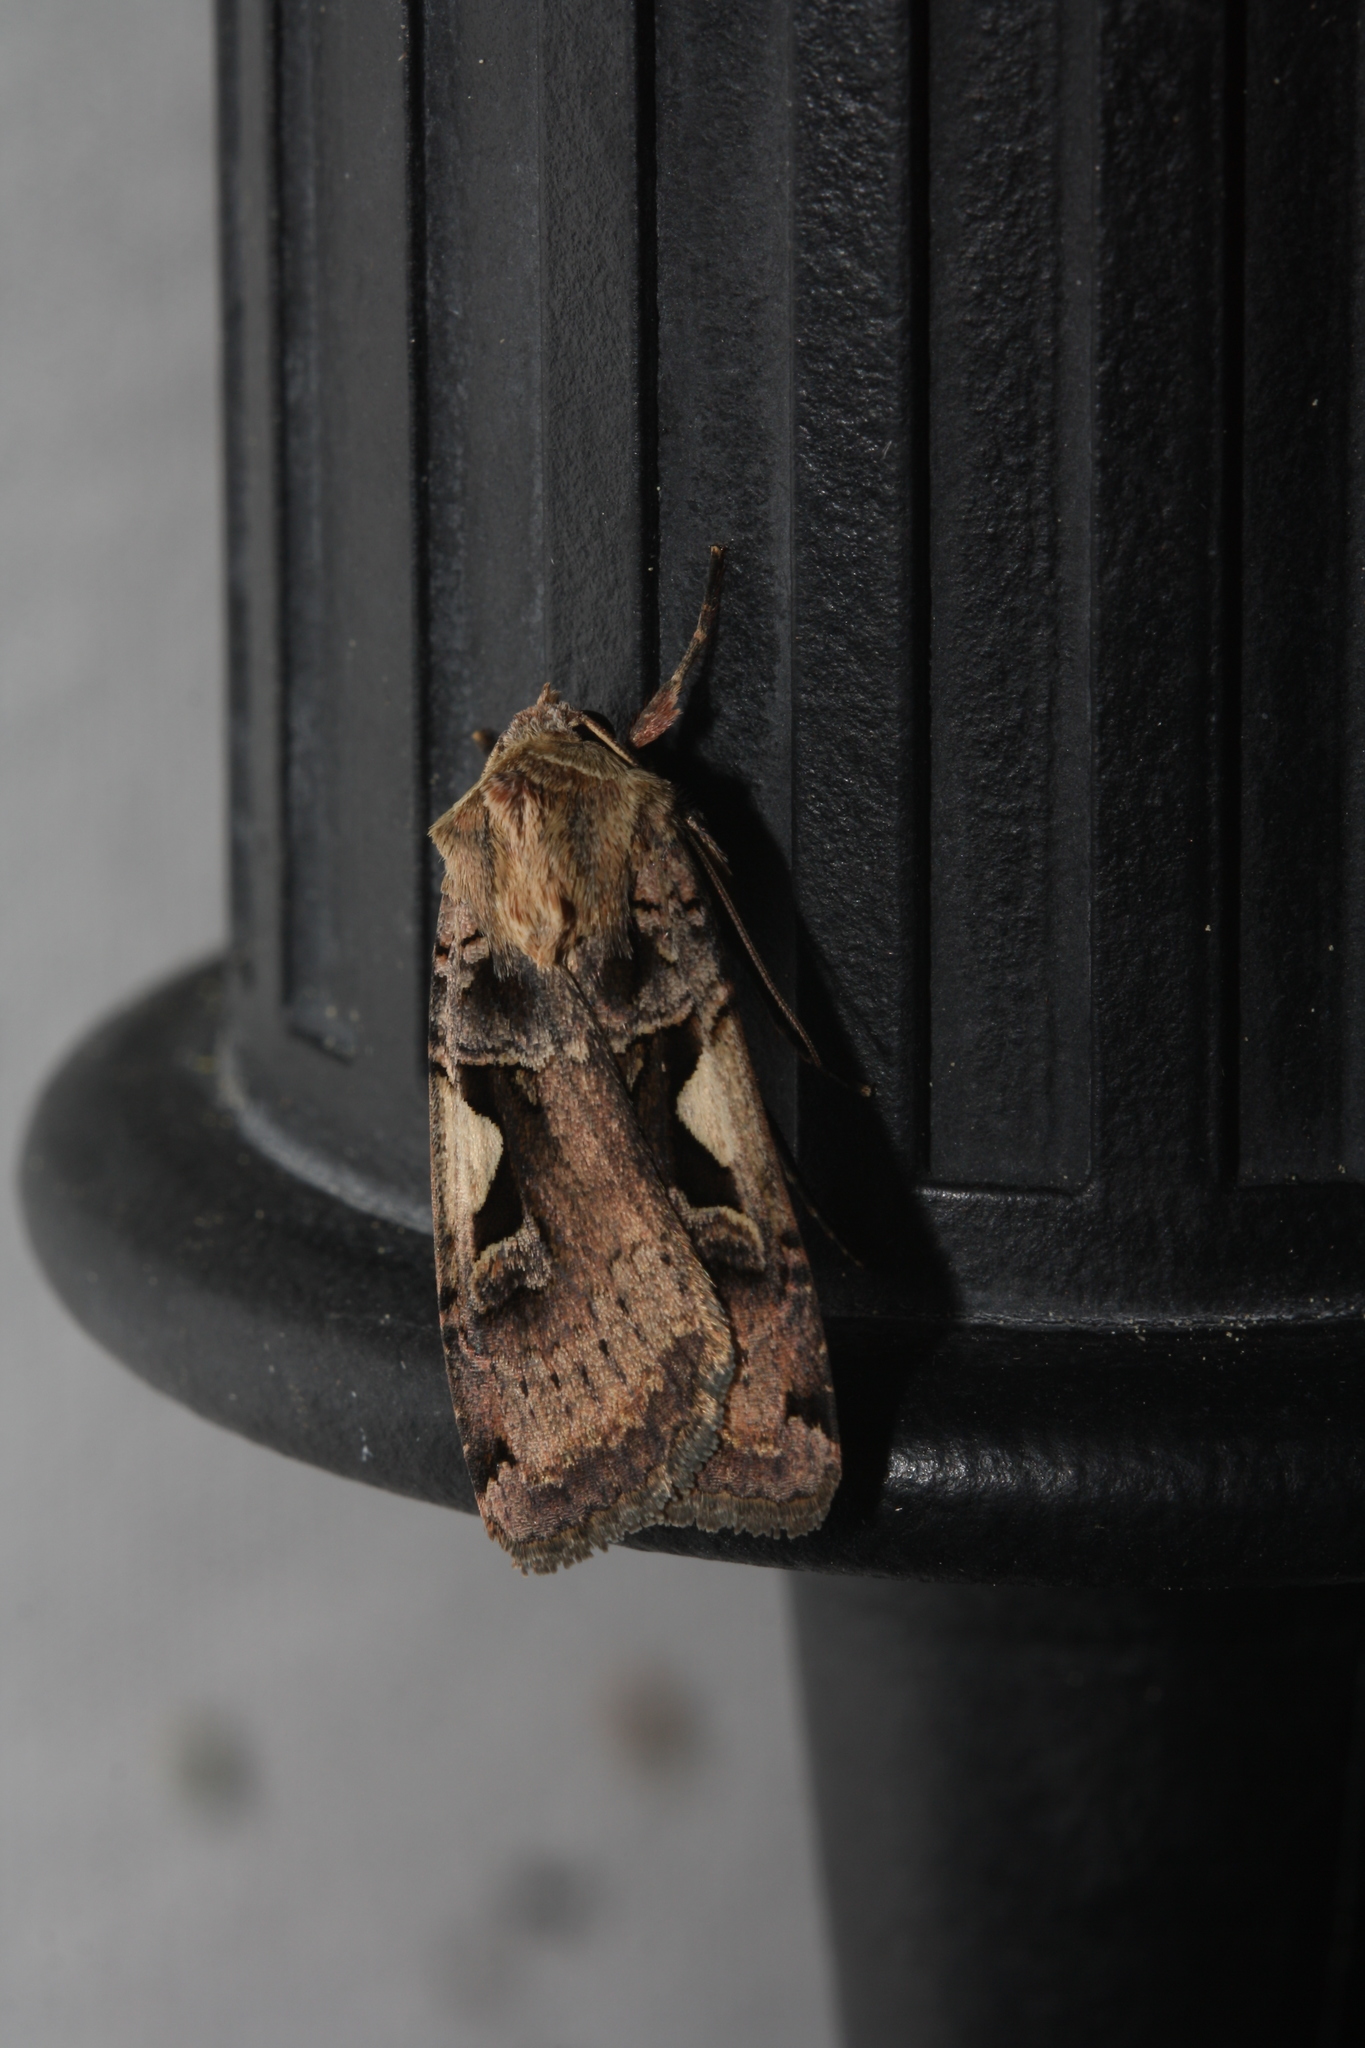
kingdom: Animalia
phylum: Arthropoda
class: Insecta
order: Lepidoptera
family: Noctuidae
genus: Xestia
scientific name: Xestia c-nigrum
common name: Setaceous hebrew character
